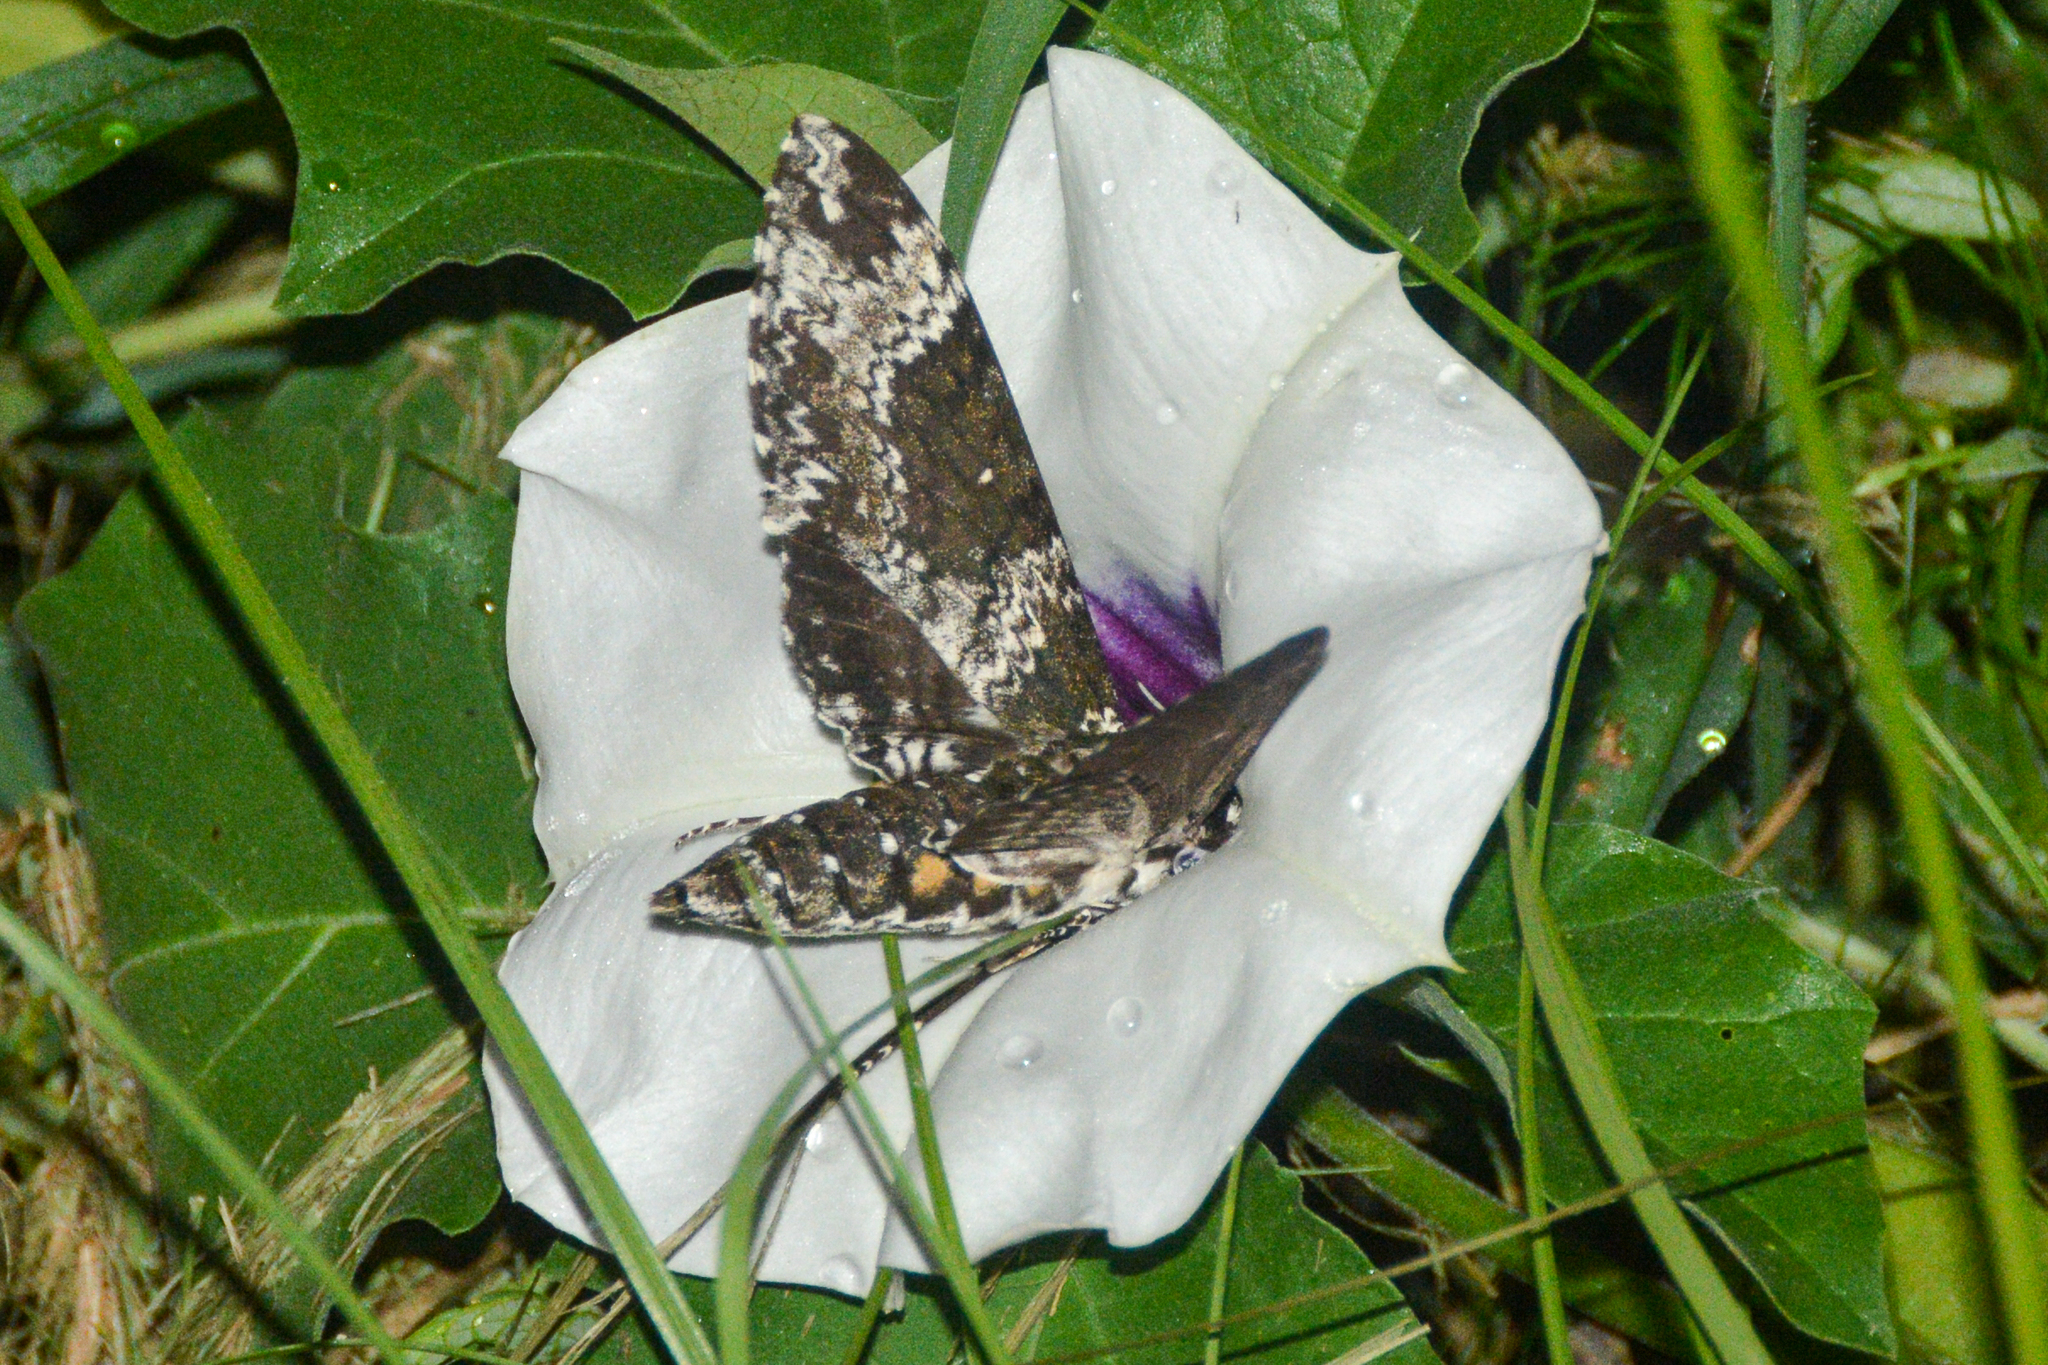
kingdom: Animalia
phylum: Arthropoda
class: Insecta
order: Lepidoptera
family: Sphingidae
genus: Manduca
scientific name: Manduca rustica
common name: Rustic sphinx
